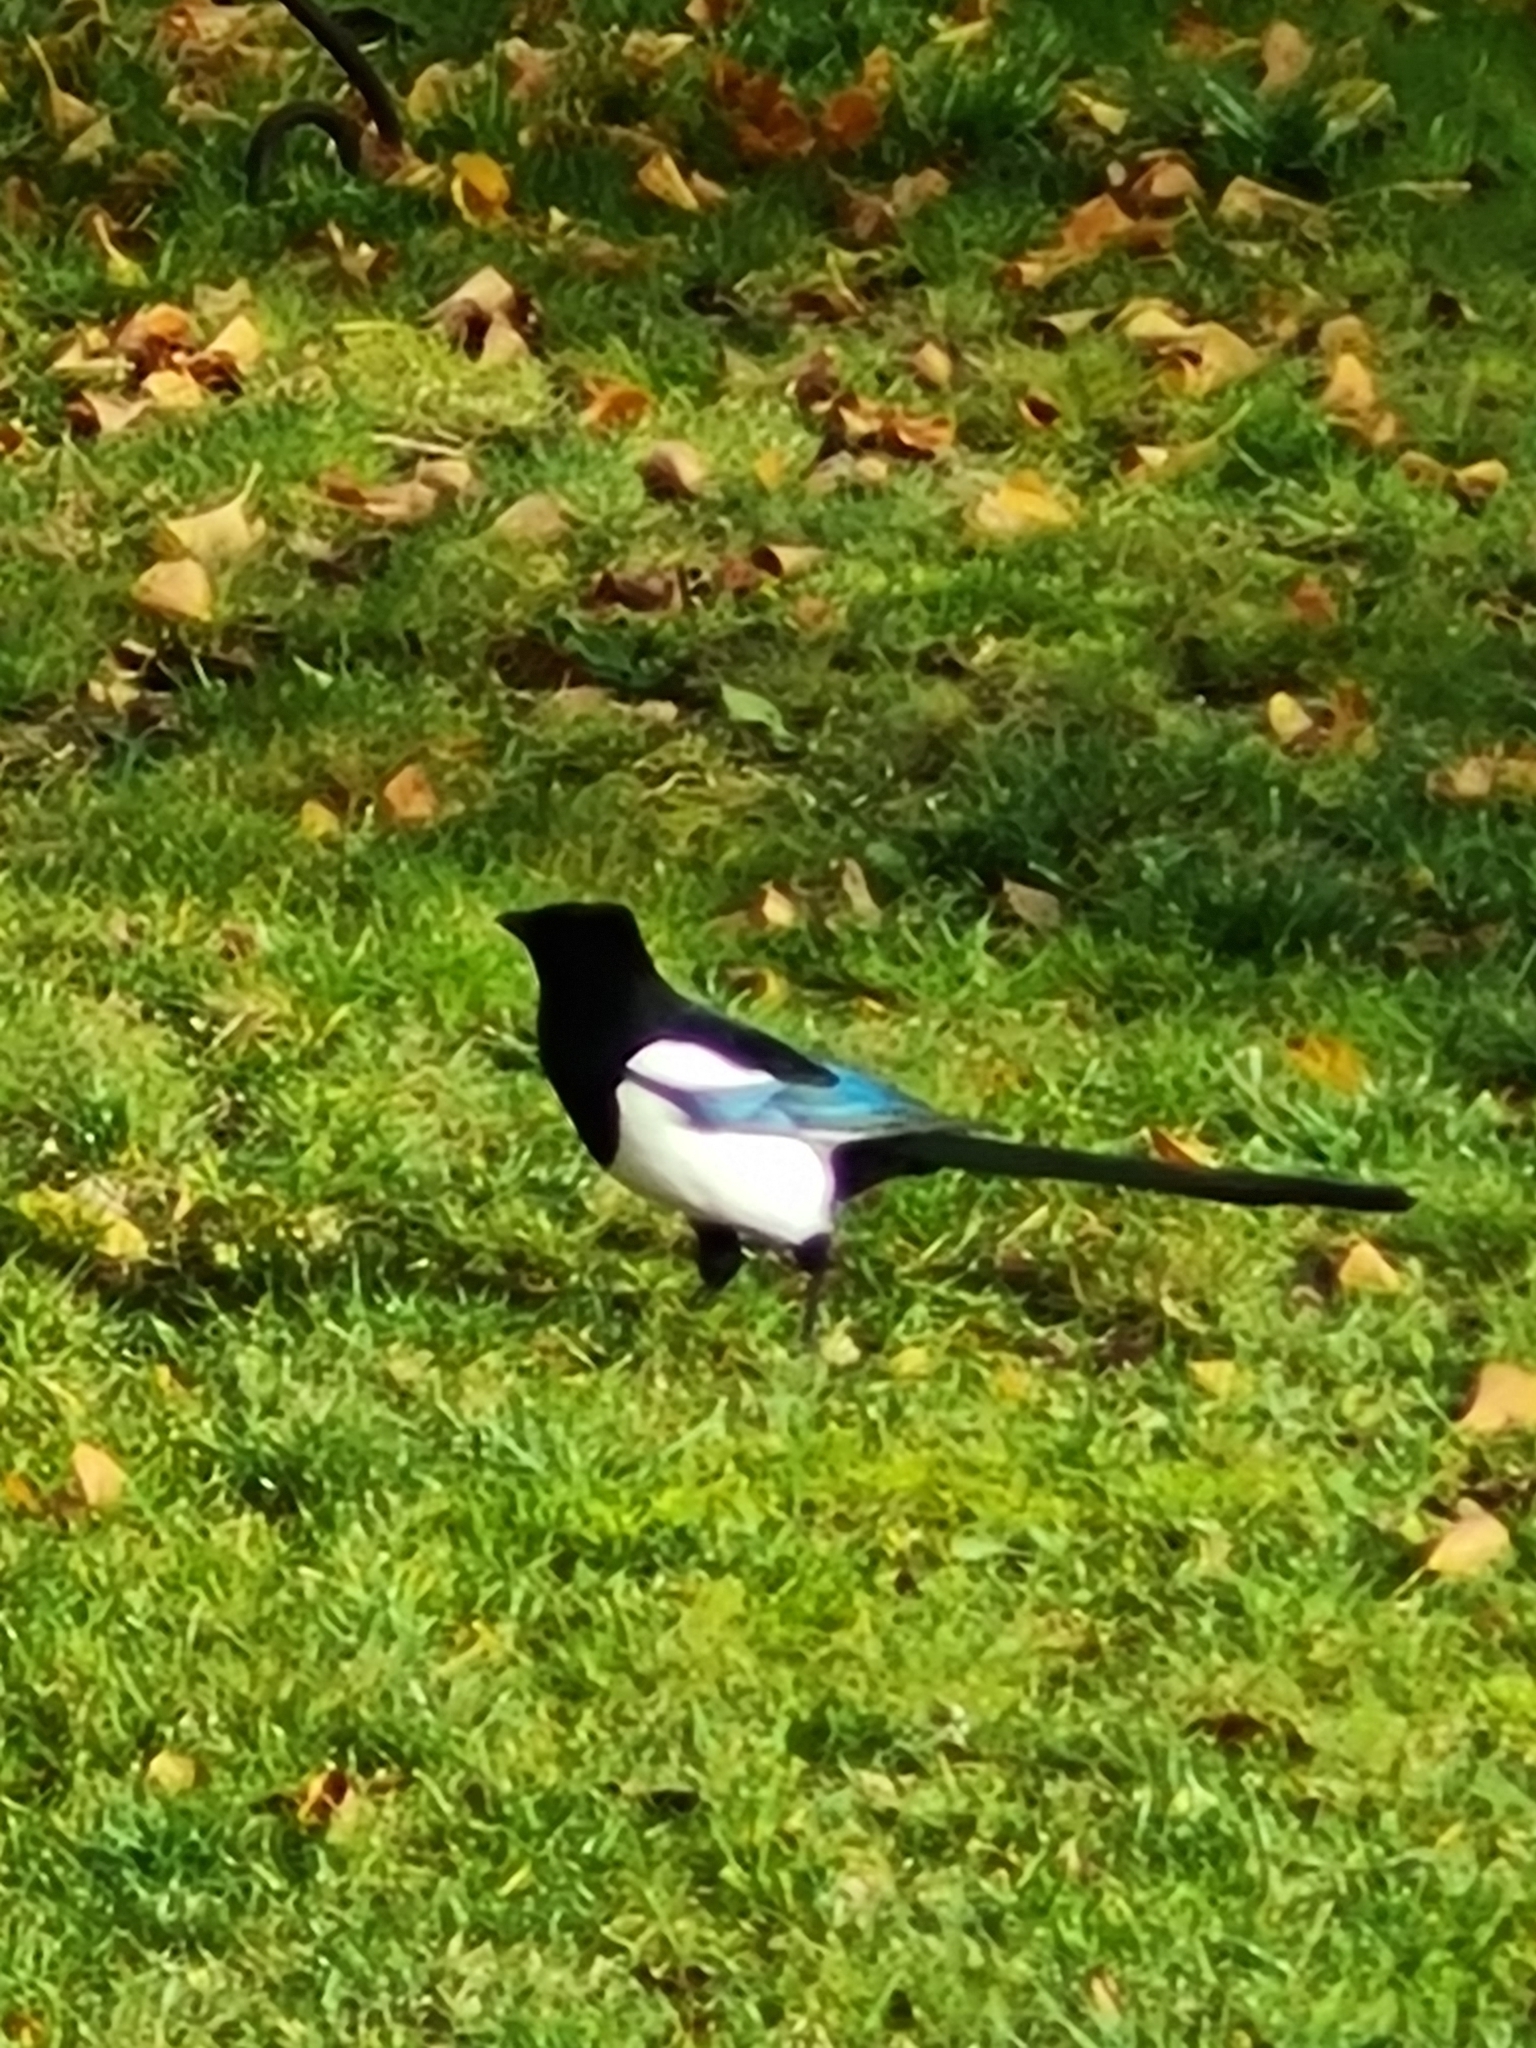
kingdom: Animalia
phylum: Chordata
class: Aves
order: Passeriformes
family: Corvidae
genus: Pica
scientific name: Pica pica
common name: Eurasian magpie
